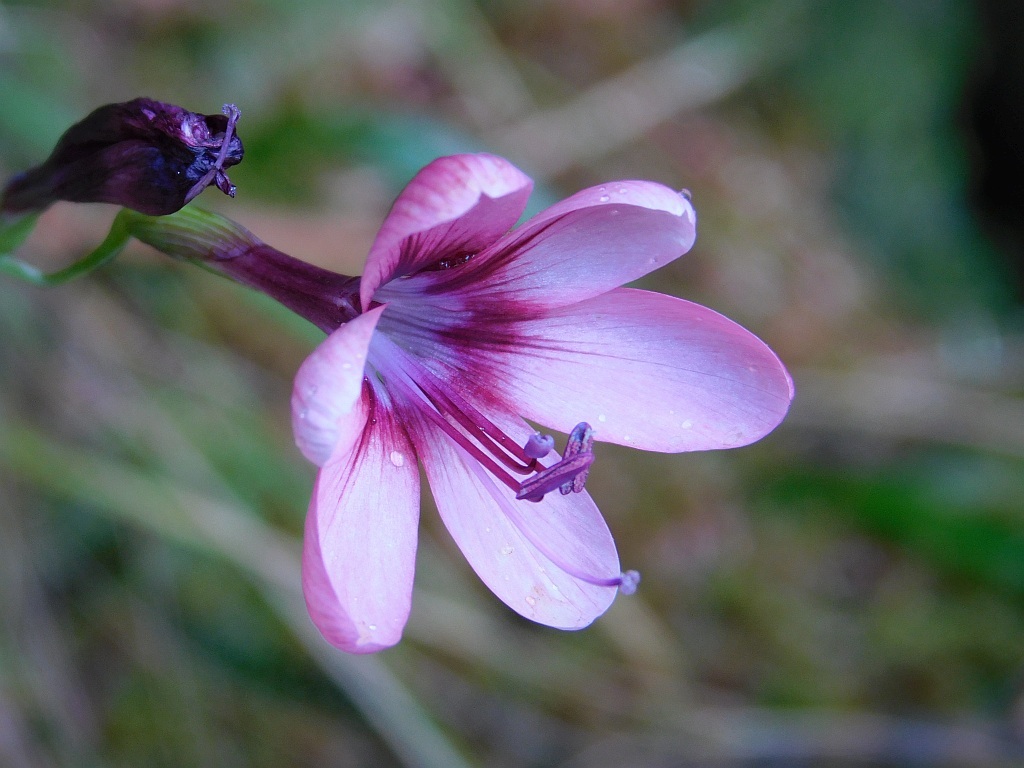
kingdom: Plantae
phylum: Tracheophyta
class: Liliopsida
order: Asparagales
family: Iridaceae
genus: Geissorhiza
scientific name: Geissorhiza callista
